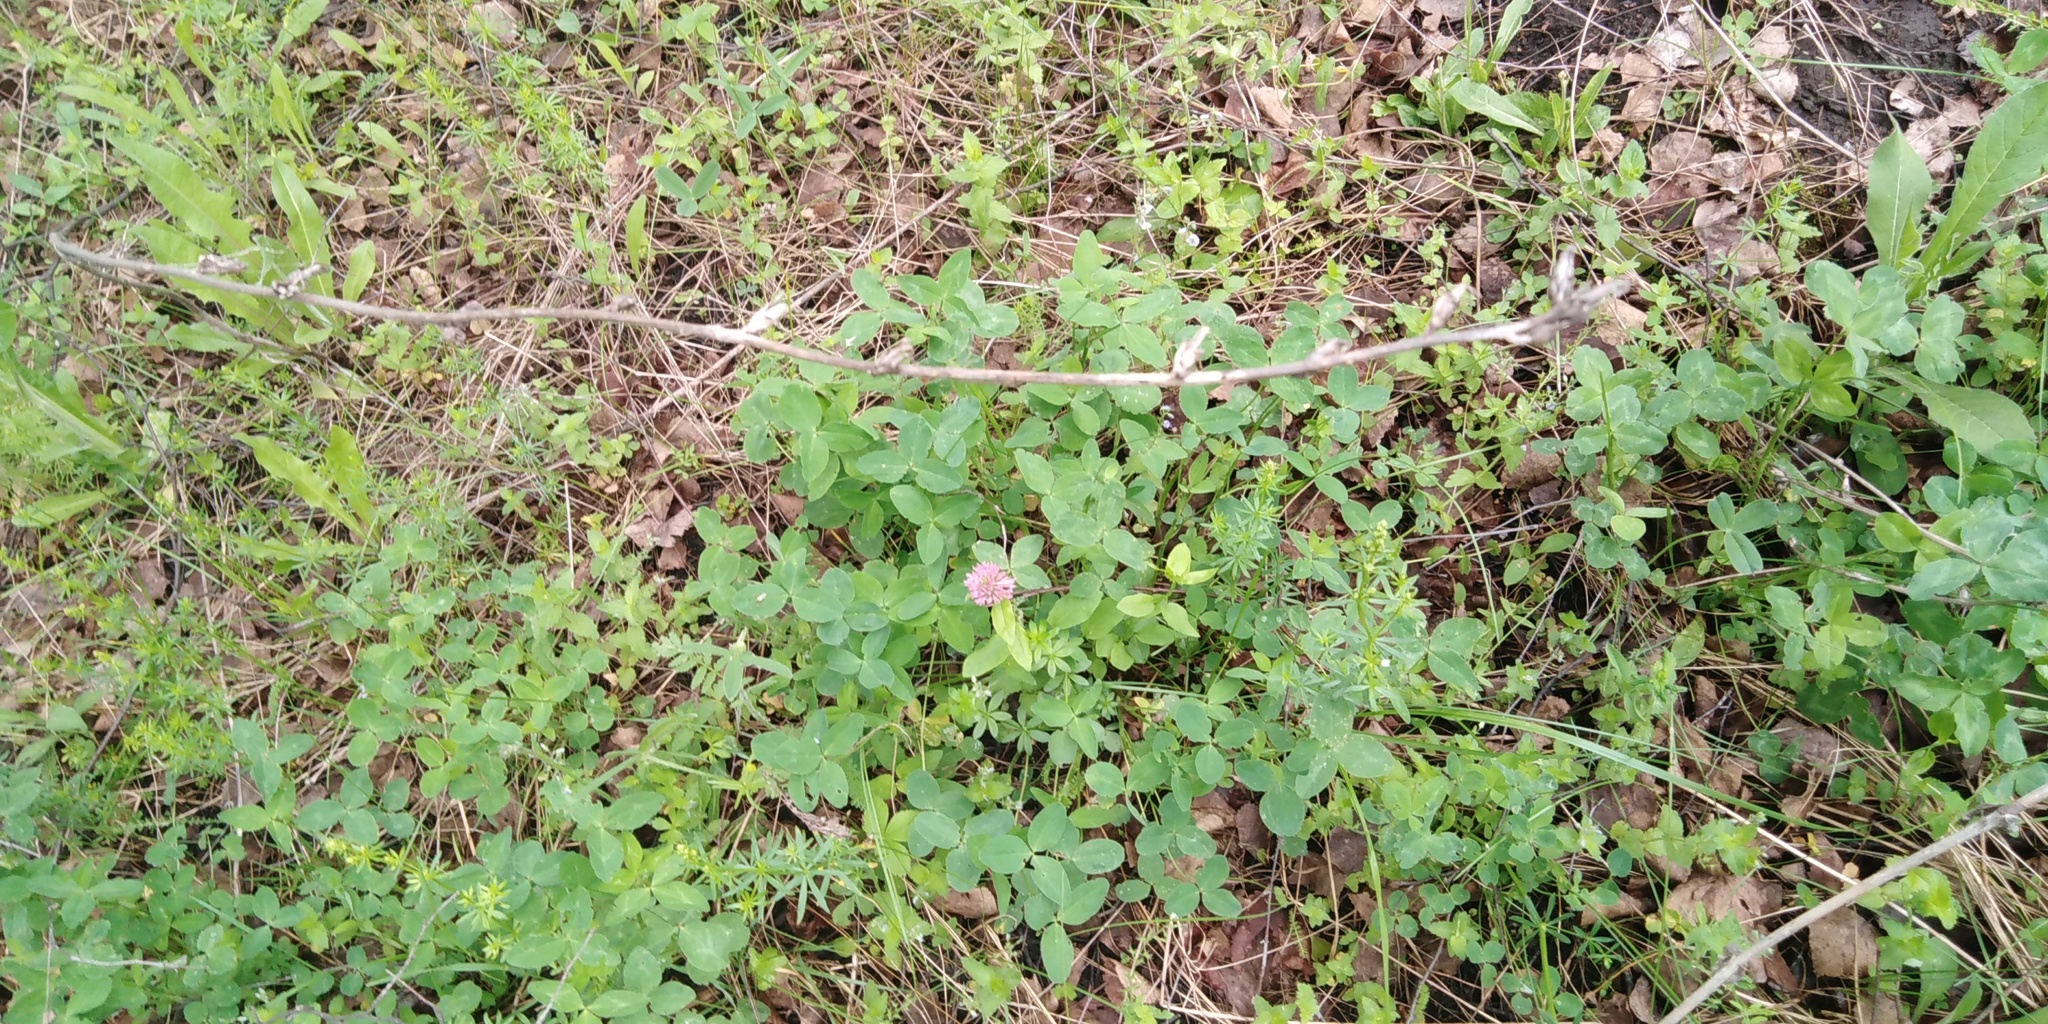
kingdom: Plantae
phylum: Tracheophyta
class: Magnoliopsida
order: Fabales
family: Fabaceae
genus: Trifolium
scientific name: Trifolium pratense
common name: Red clover
